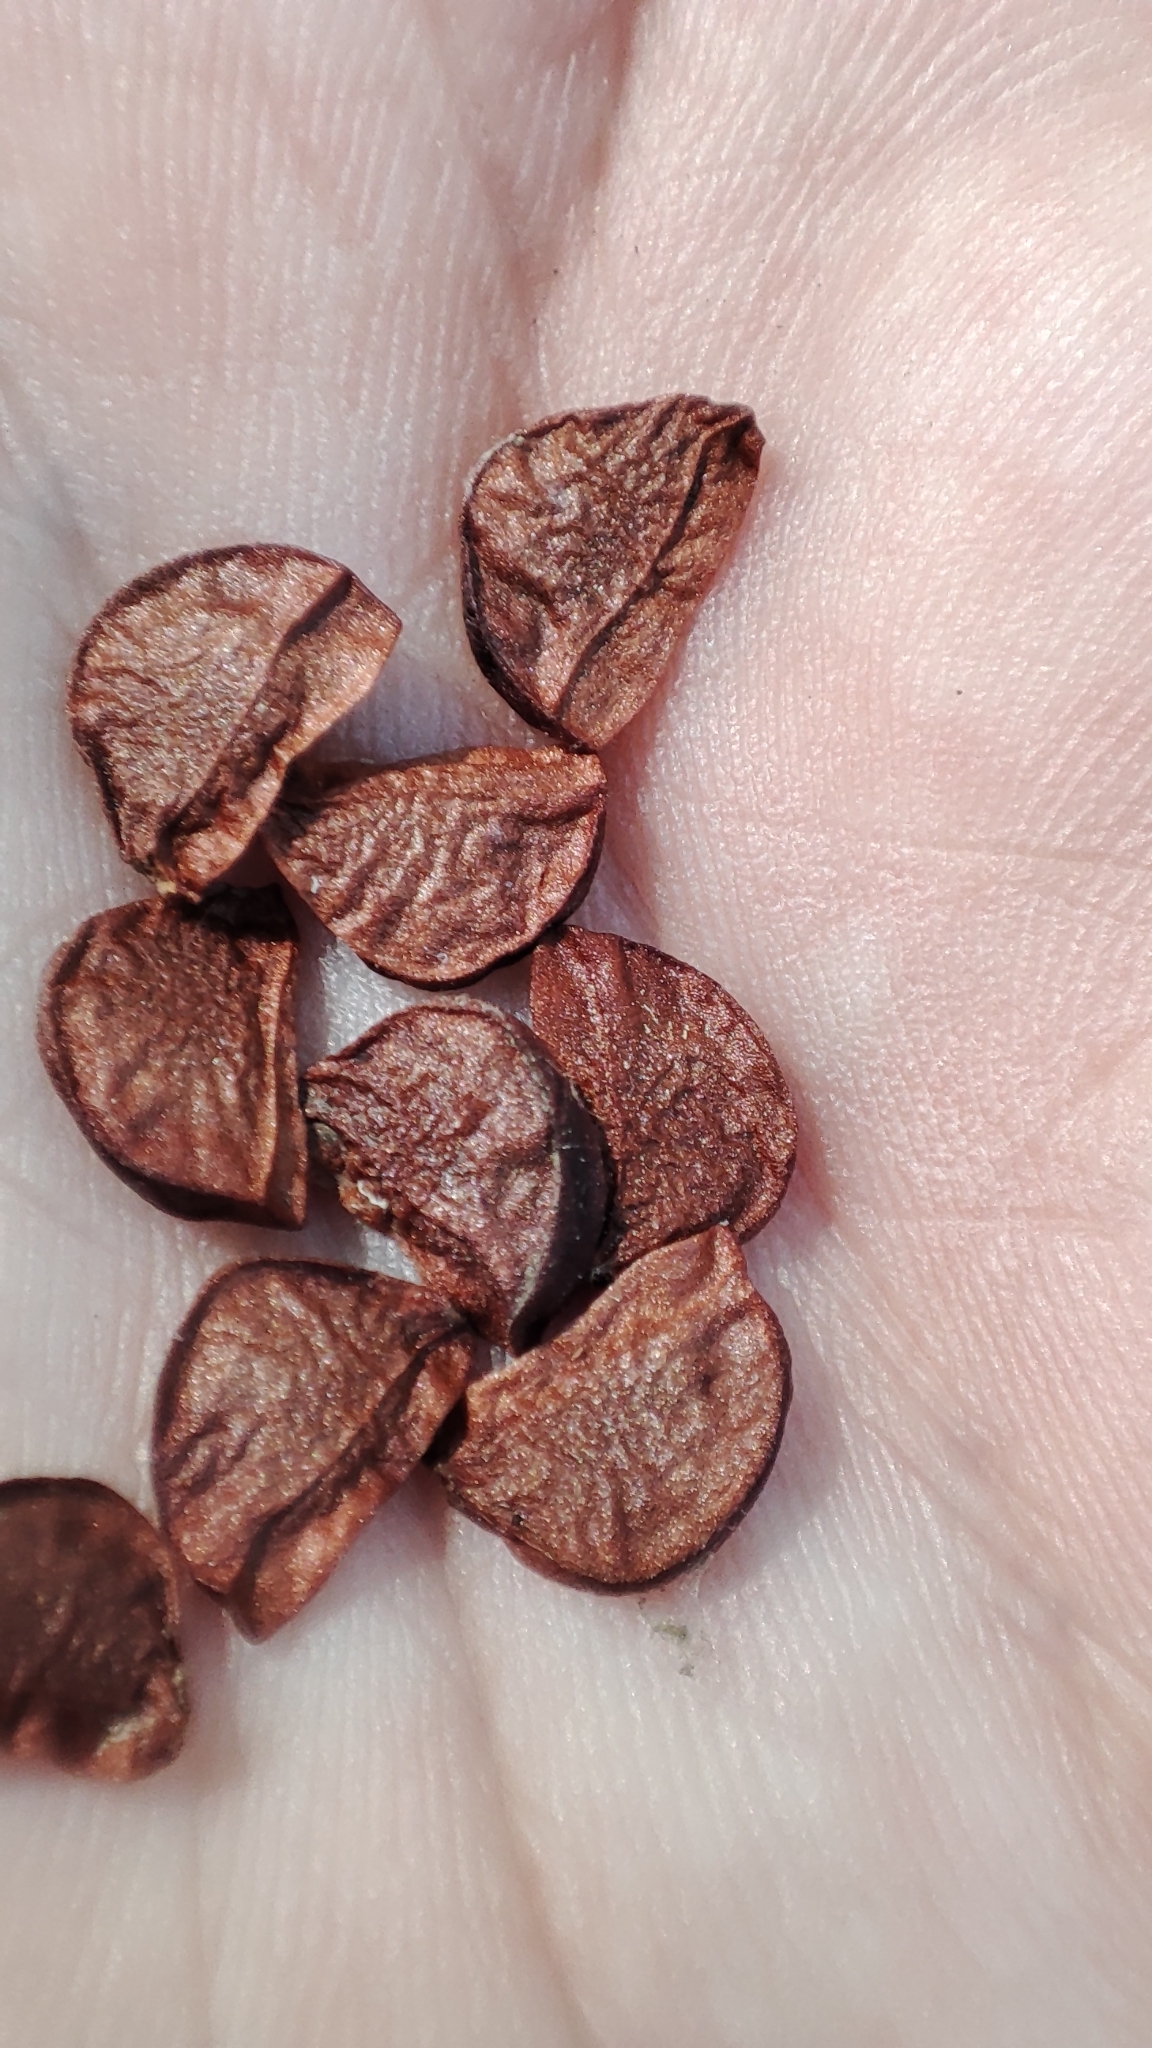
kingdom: Plantae
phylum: Tracheophyta
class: Liliopsida
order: Asparagales
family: Iridaceae
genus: Iris
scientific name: Iris sibirica
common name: Siberian iris
